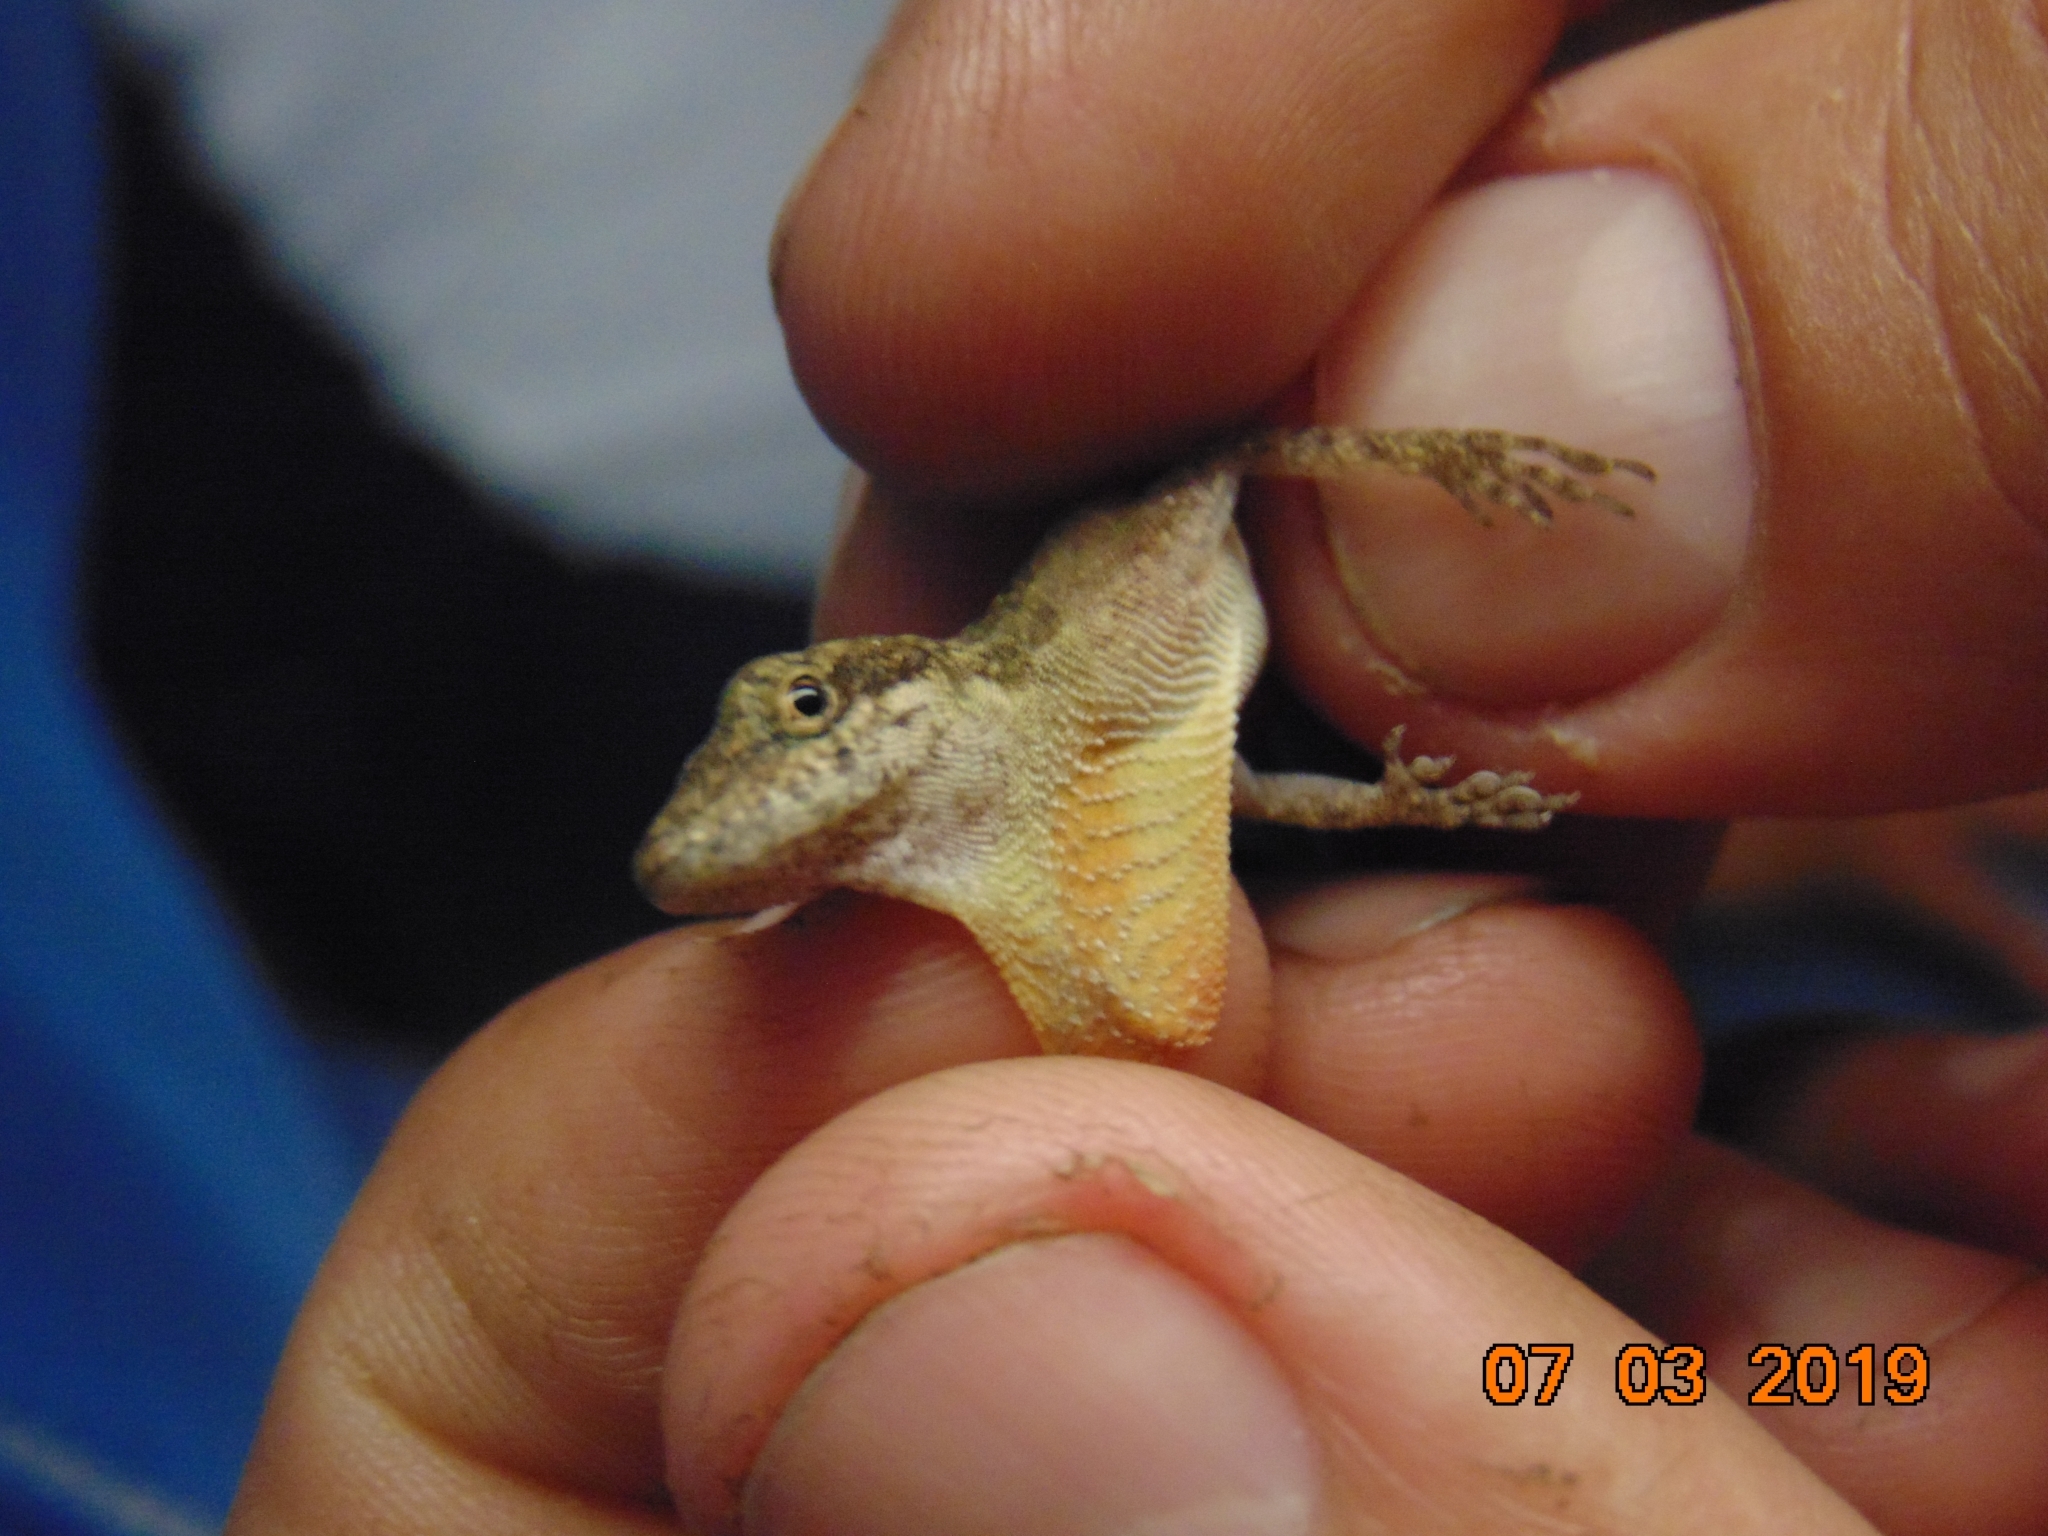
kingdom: Animalia
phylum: Chordata
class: Squamata
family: Dactyloidae
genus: Anolis
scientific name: Anolis rodriguezii
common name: Middle american smooth anole
